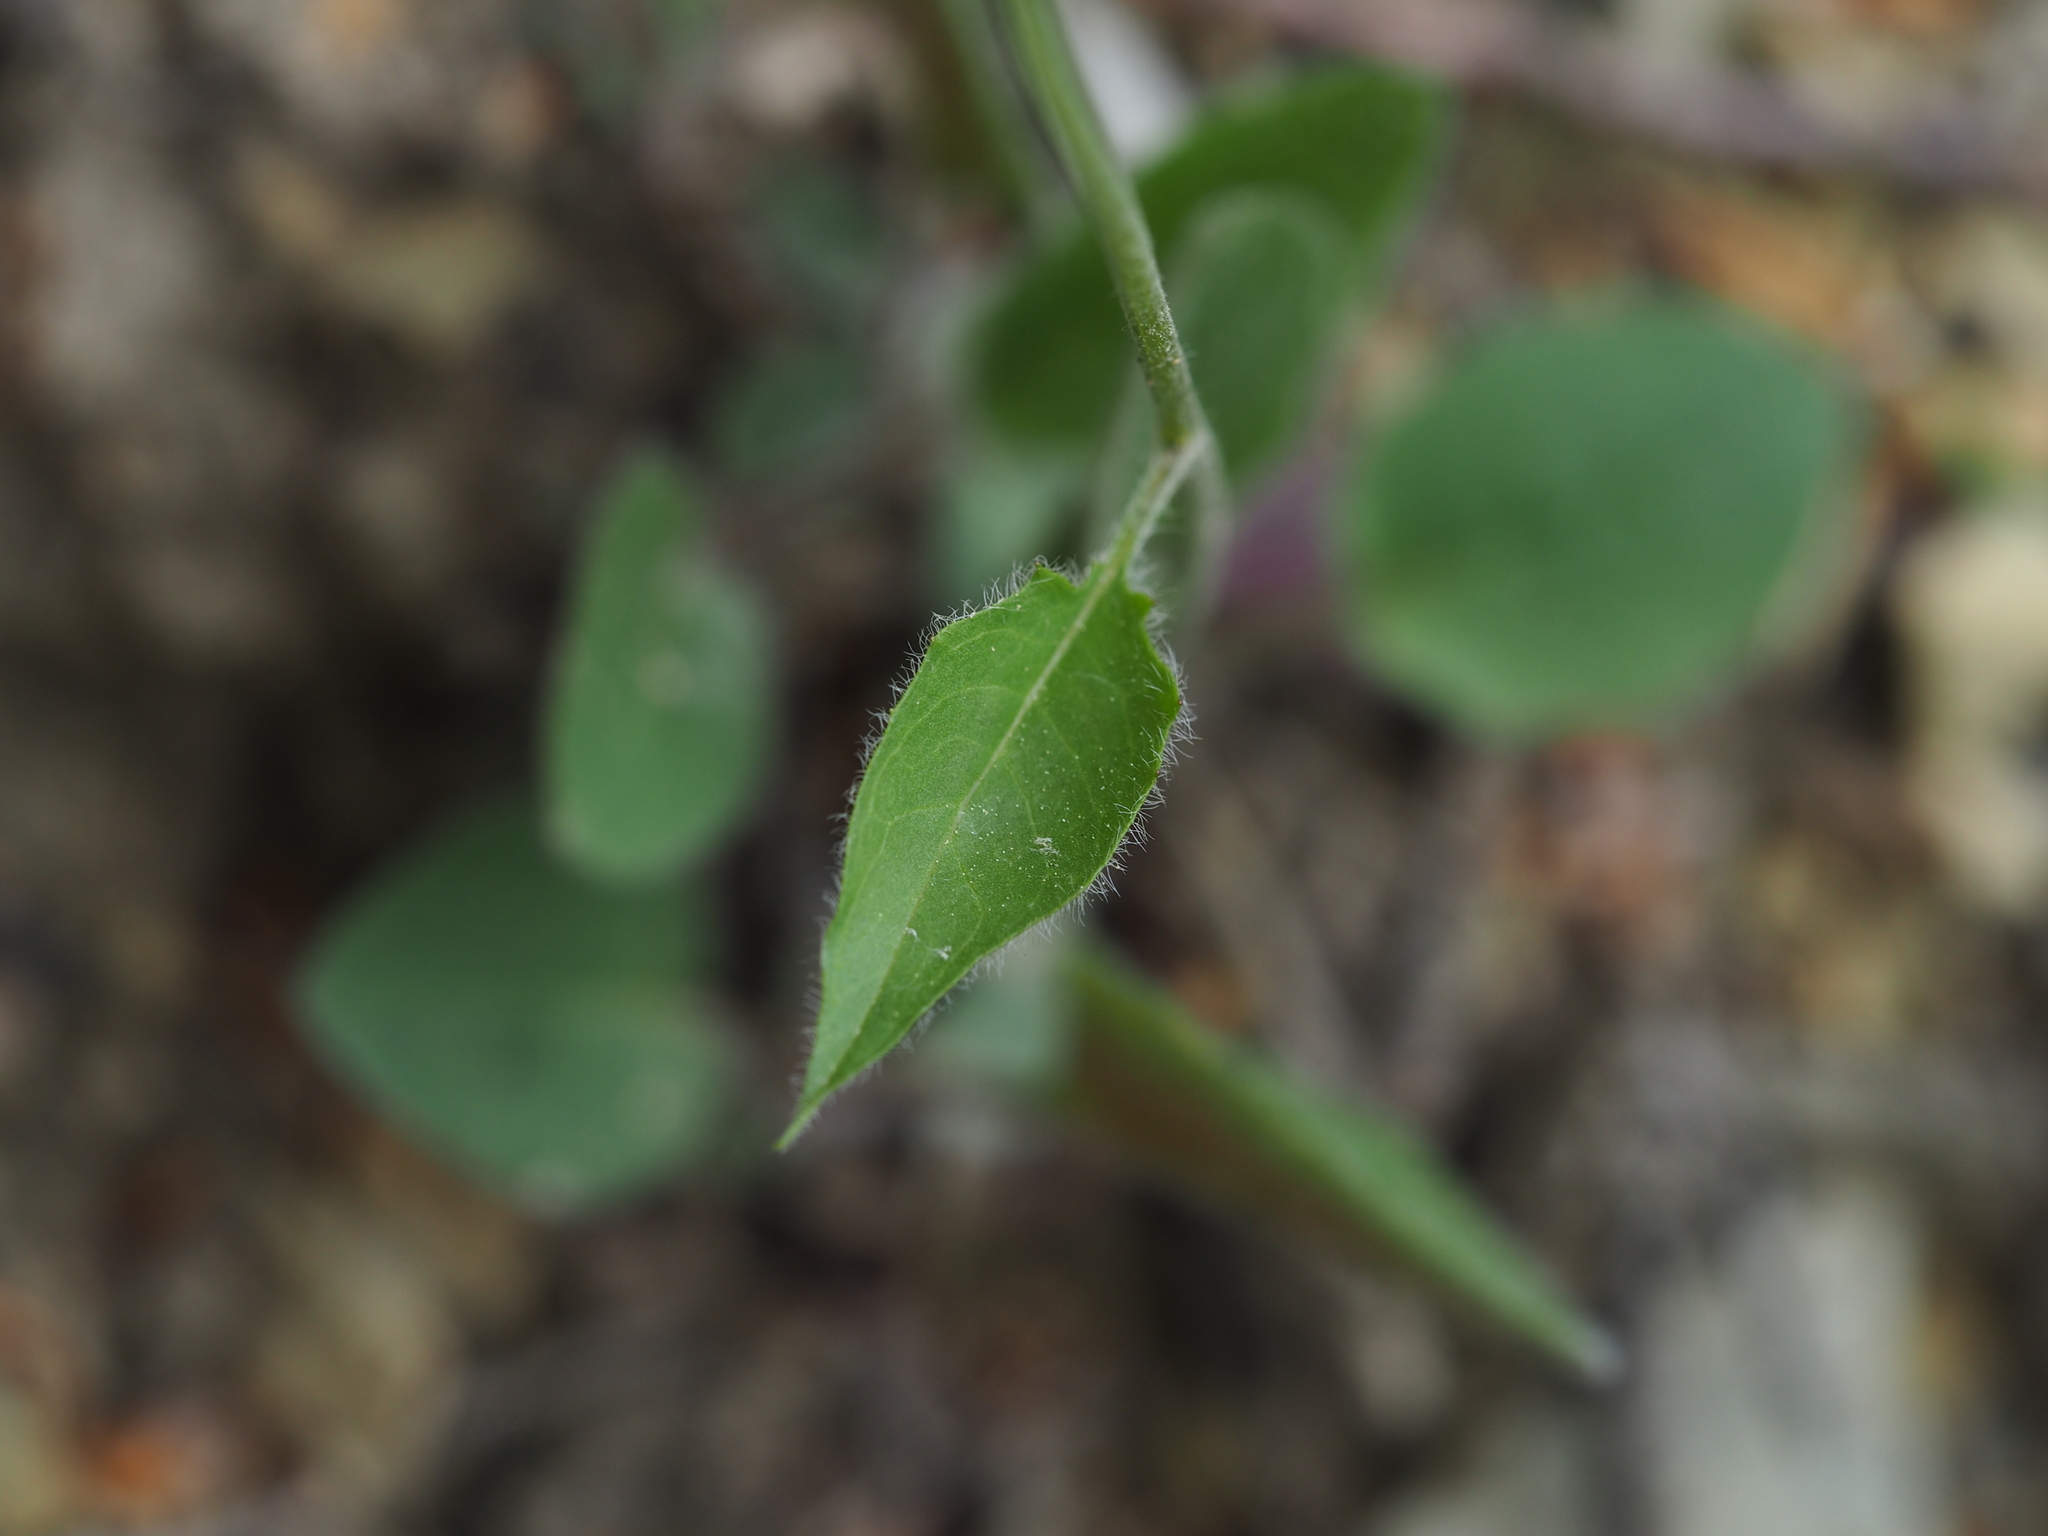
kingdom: Plantae
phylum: Tracheophyta
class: Magnoliopsida
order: Asterales
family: Asteraceae
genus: Hieracium
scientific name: Hieracium murorum
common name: Wall hawkweed
